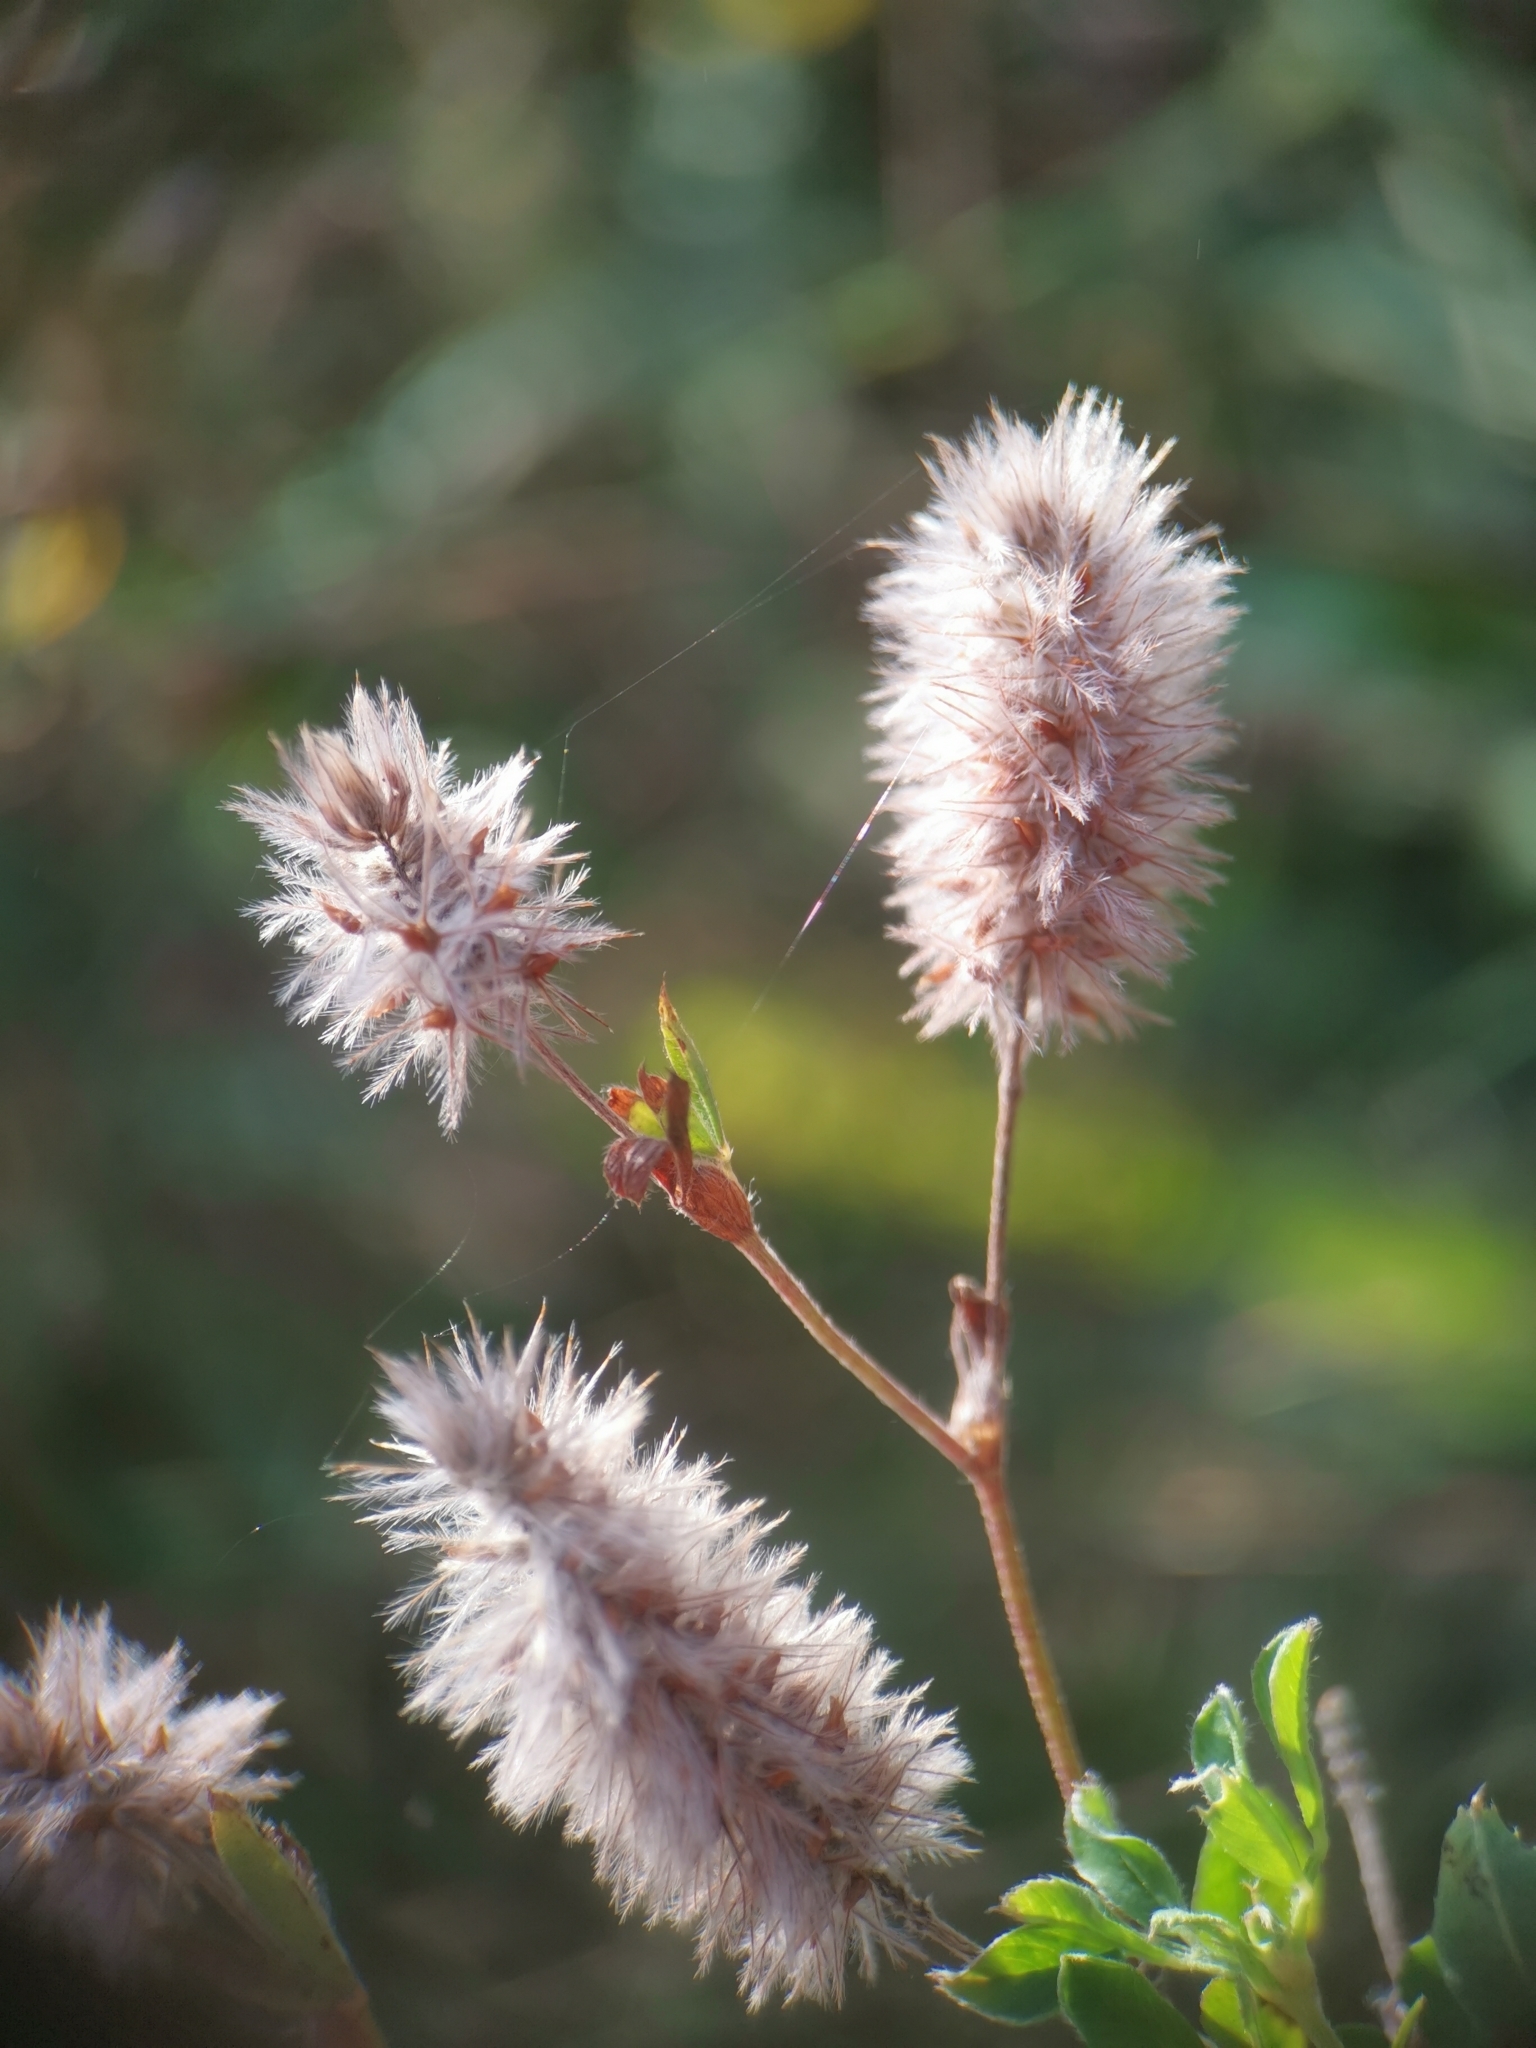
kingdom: Plantae
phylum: Tracheophyta
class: Magnoliopsida
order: Fabales
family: Fabaceae
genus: Trifolium
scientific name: Trifolium arvense
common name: Hare's-foot clover
